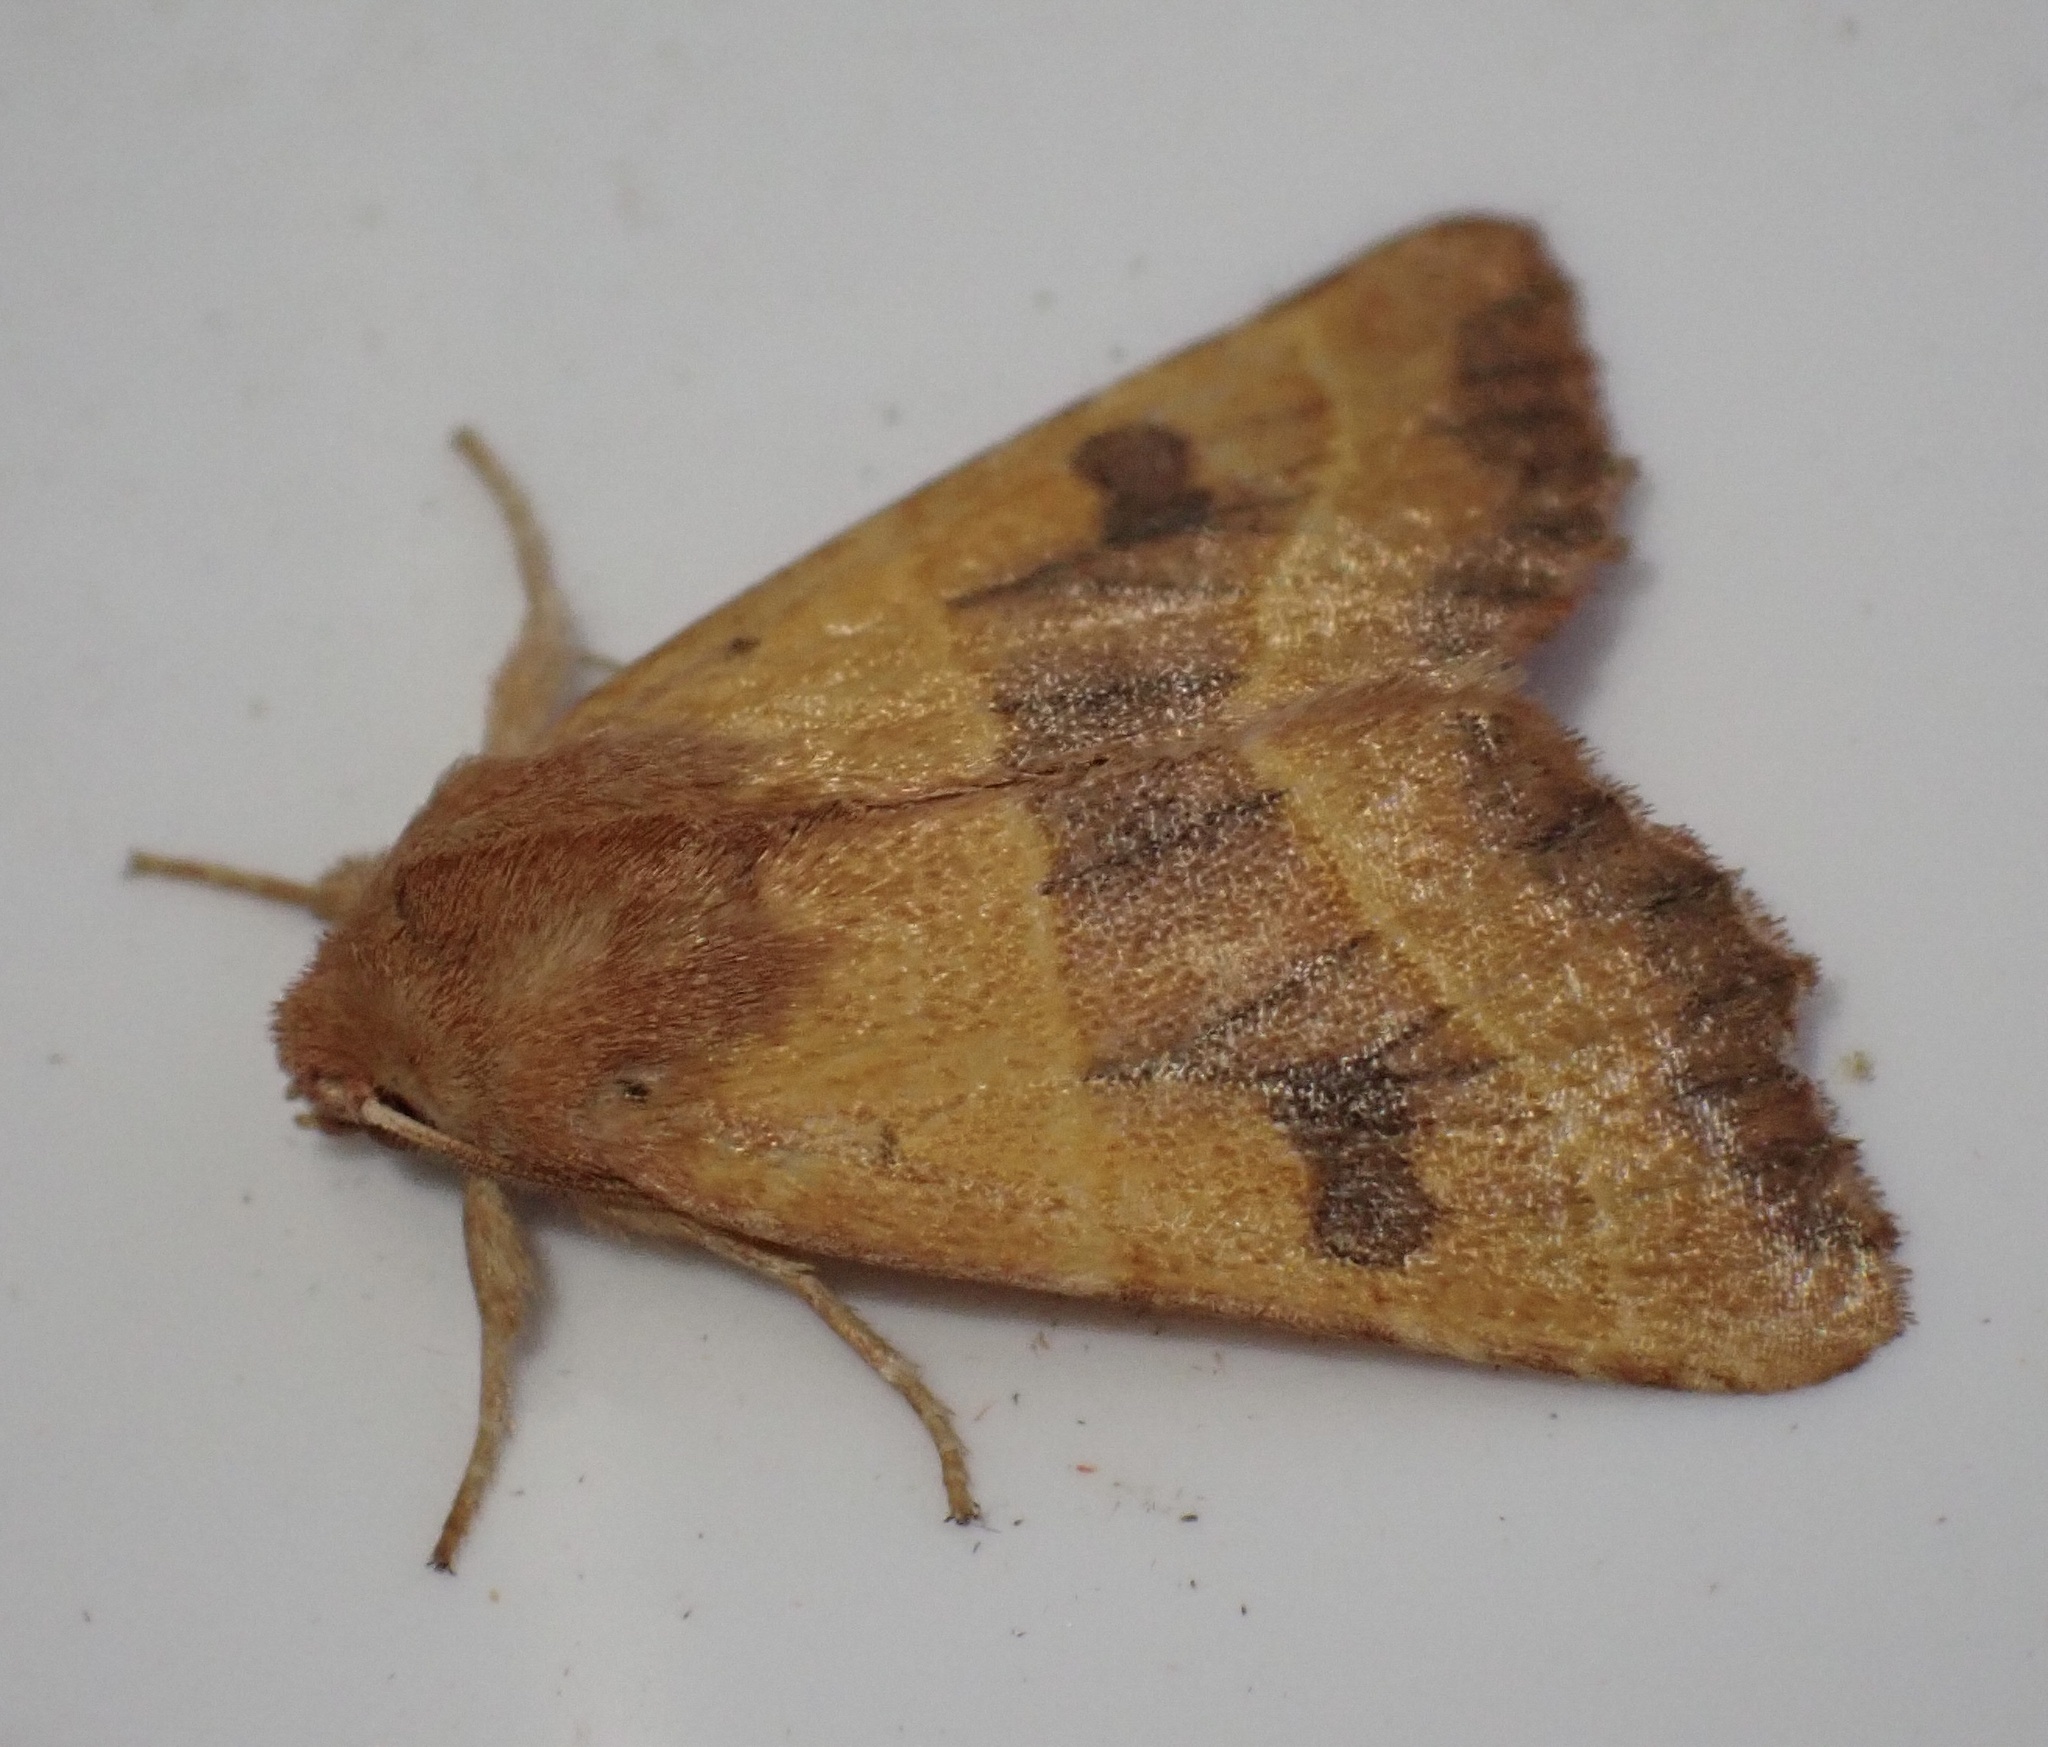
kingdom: Animalia
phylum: Arthropoda
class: Insecta
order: Lepidoptera
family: Noctuidae
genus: Atethmia
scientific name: Atethmia centrago
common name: Centre-barred sallow
